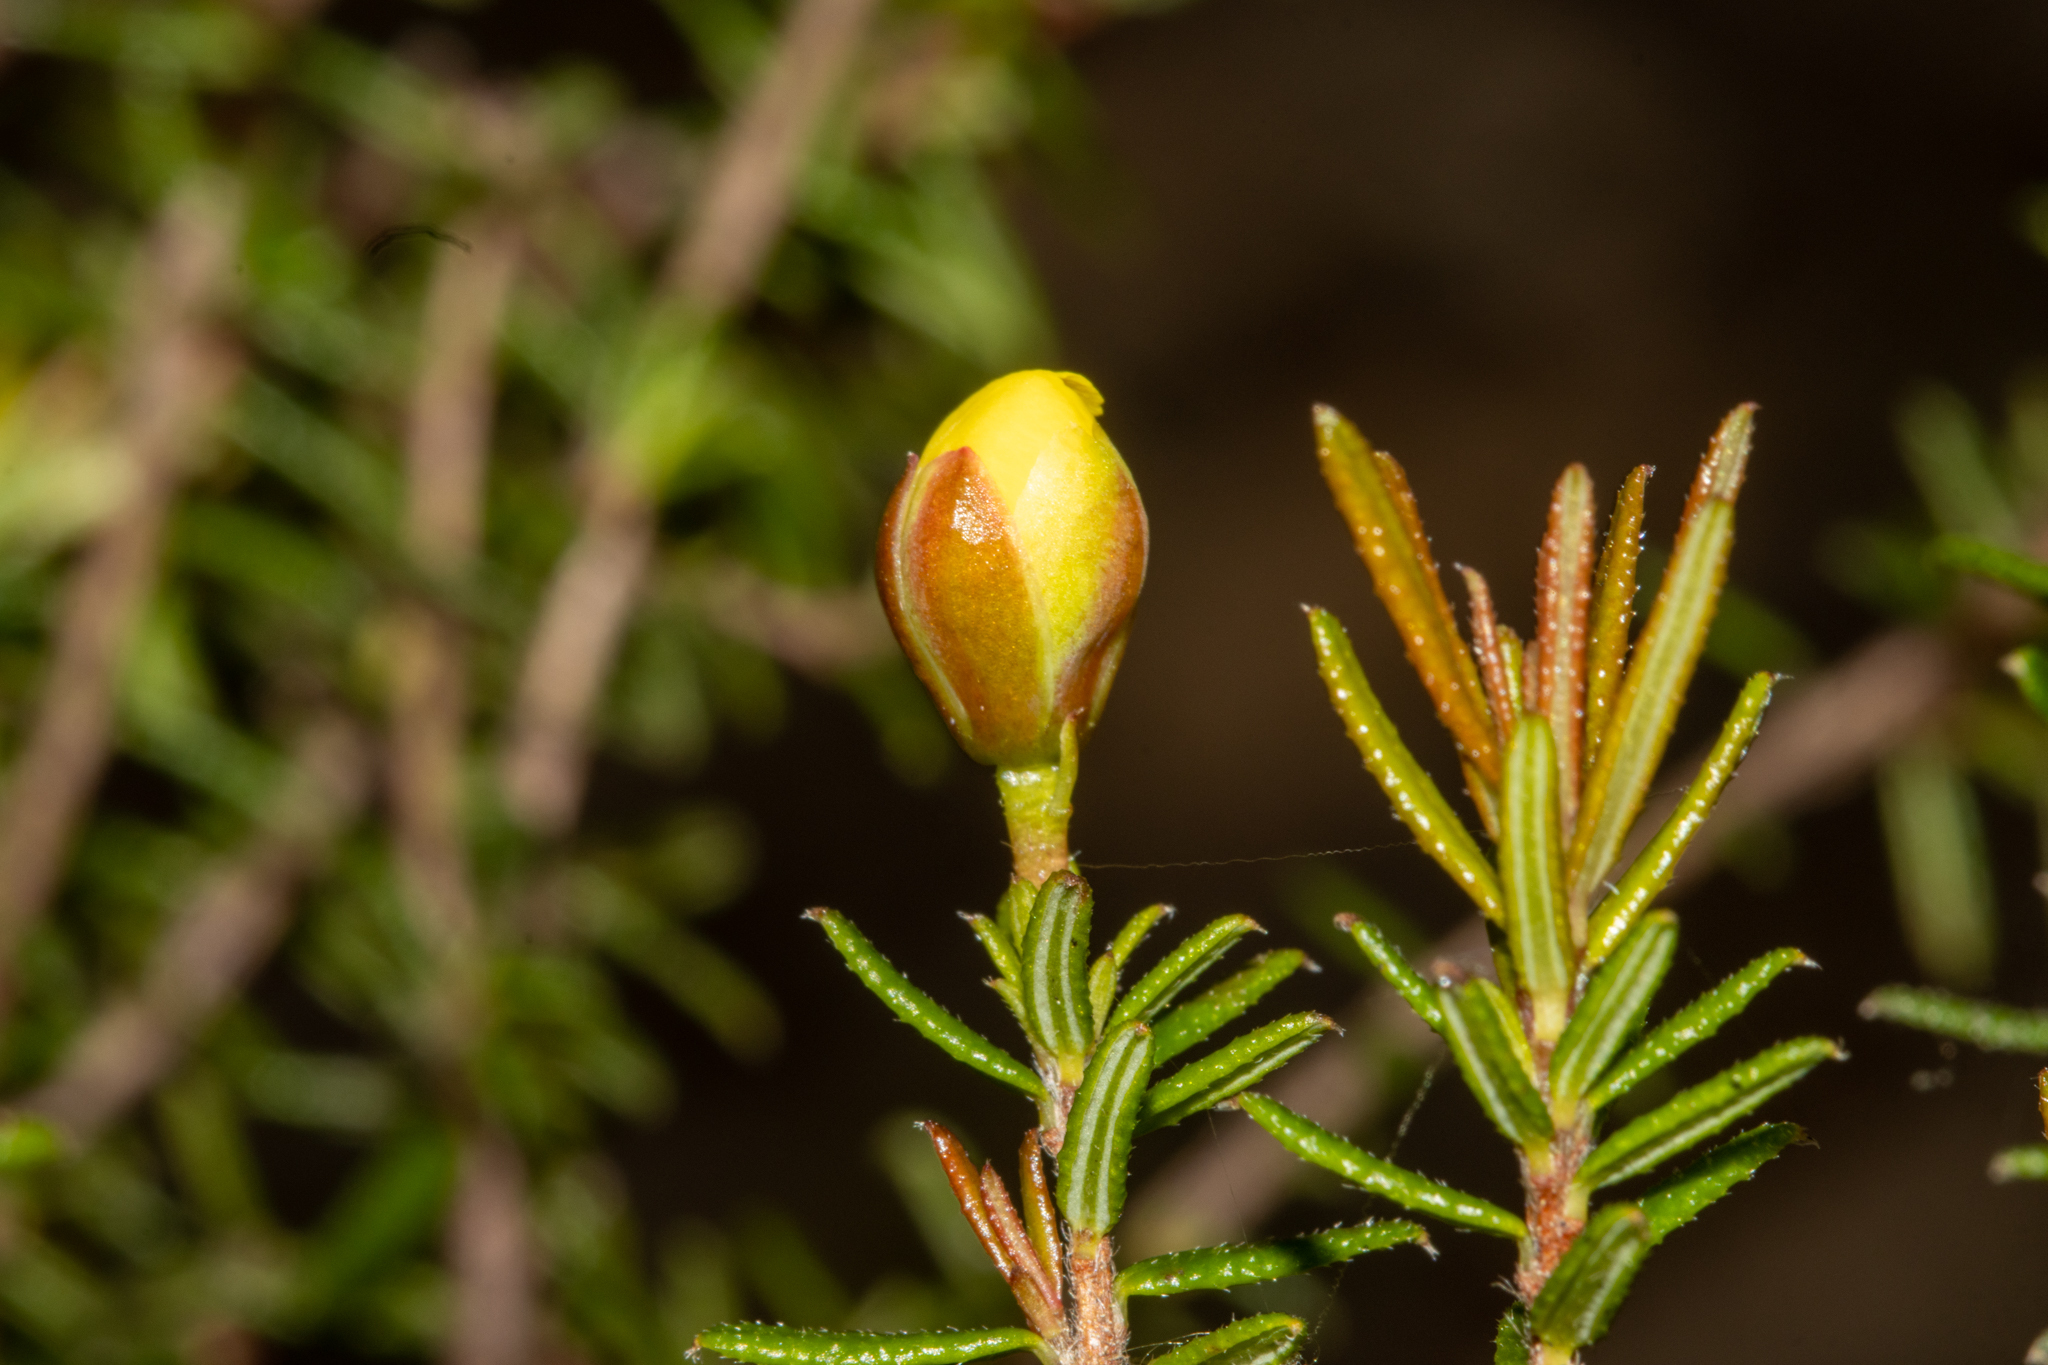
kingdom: Plantae
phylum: Tracheophyta
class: Magnoliopsida
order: Dilleniales
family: Dilleniaceae
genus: Hibbertia
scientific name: Hibbertia intermedia
